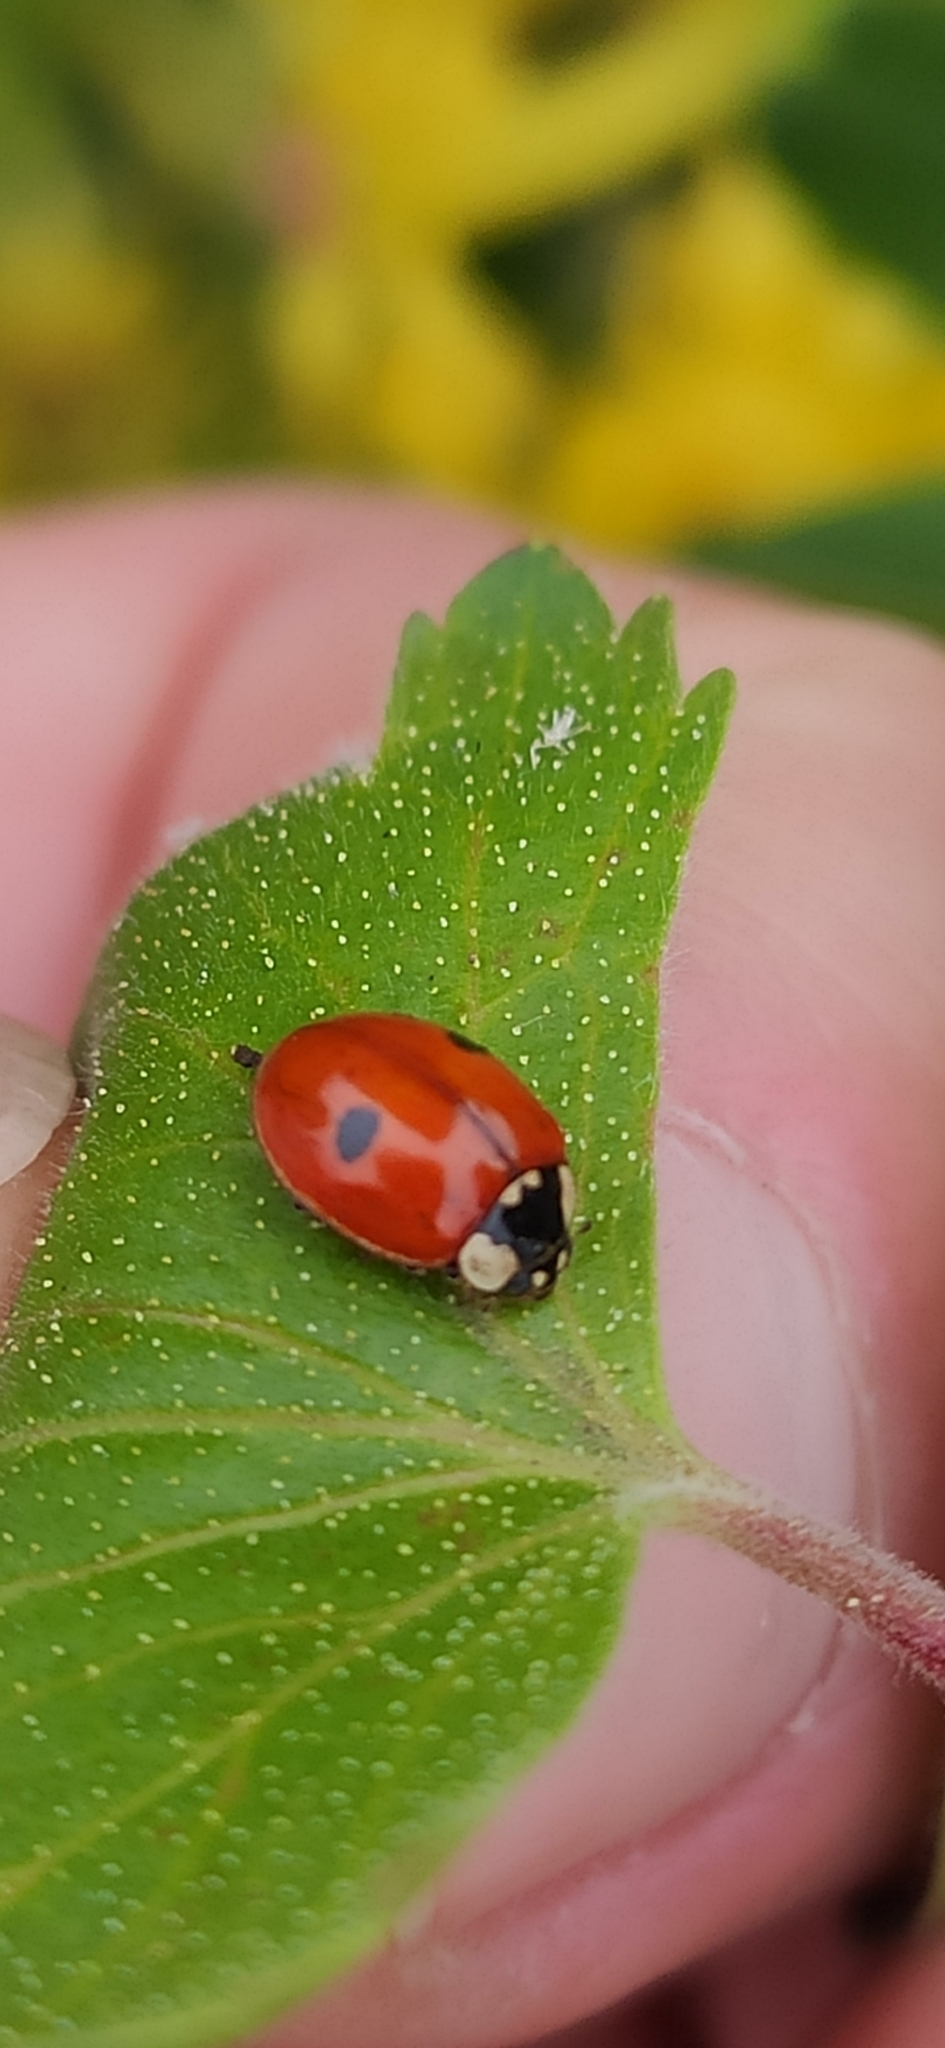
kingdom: Animalia
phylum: Arthropoda
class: Insecta
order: Coleoptera
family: Coccinellidae
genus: Adalia
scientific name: Adalia bipunctata
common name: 2-spot ladybird
